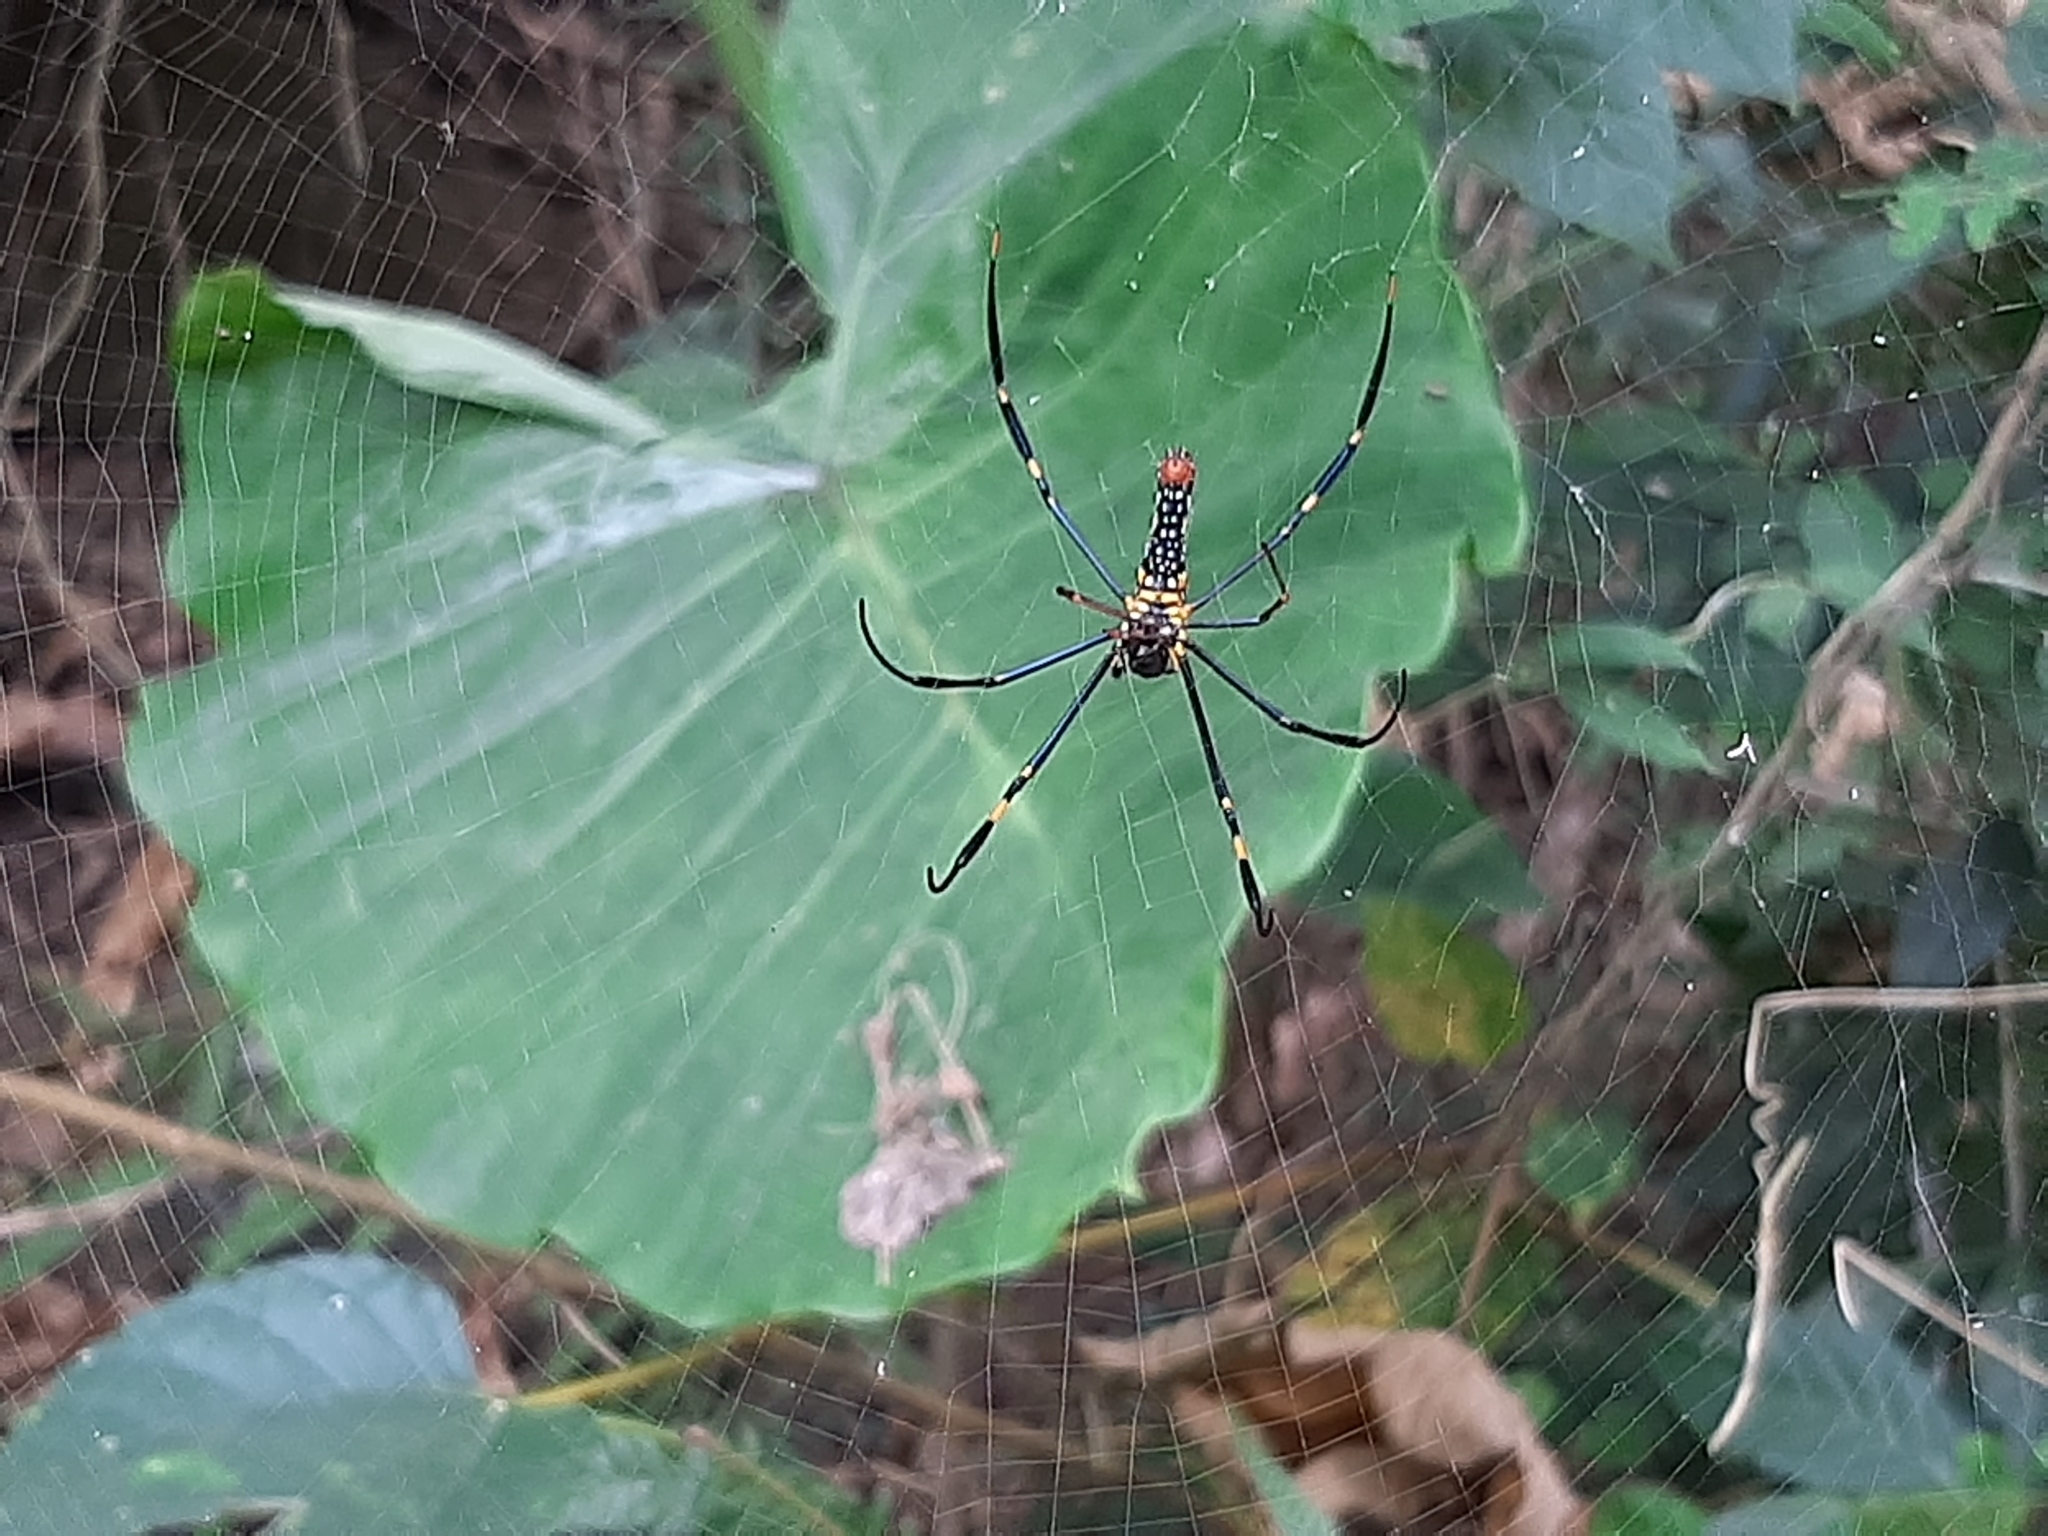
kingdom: Animalia
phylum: Arthropoda
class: Arachnida
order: Araneae
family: Araneidae
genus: Nephila
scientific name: Nephila pilipes
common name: Giant golden orb weaver
